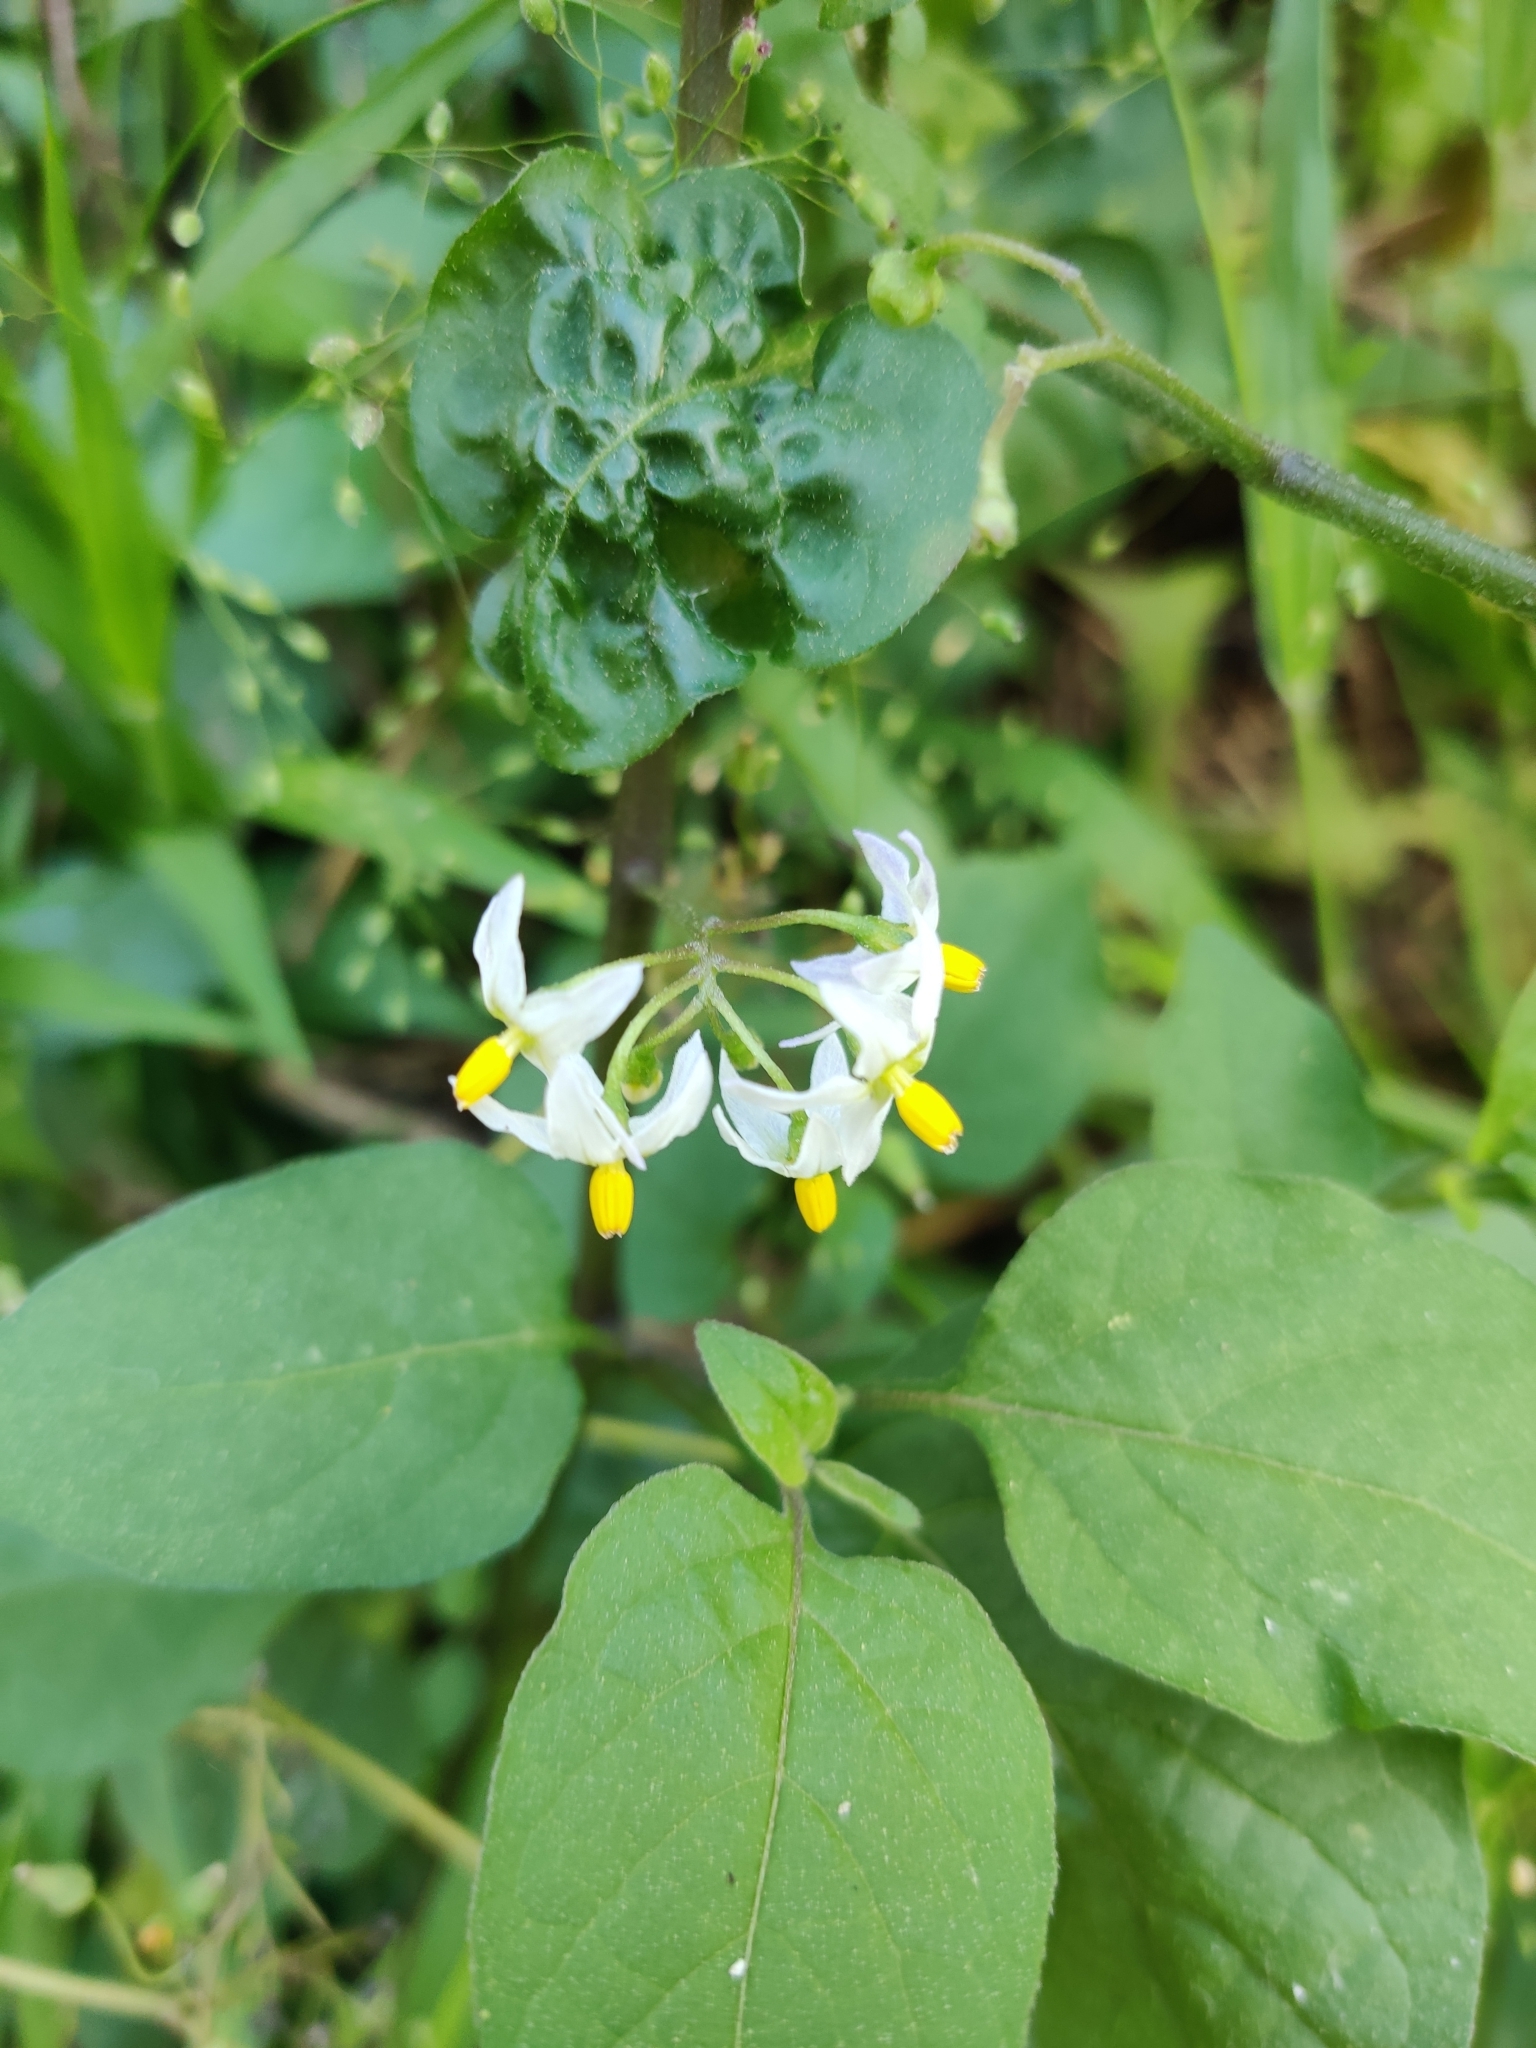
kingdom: Plantae
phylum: Tracheophyta
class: Magnoliopsida
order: Solanales
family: Solanaceae
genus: Solanum
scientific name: Solanum americanum
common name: American black nightshade
